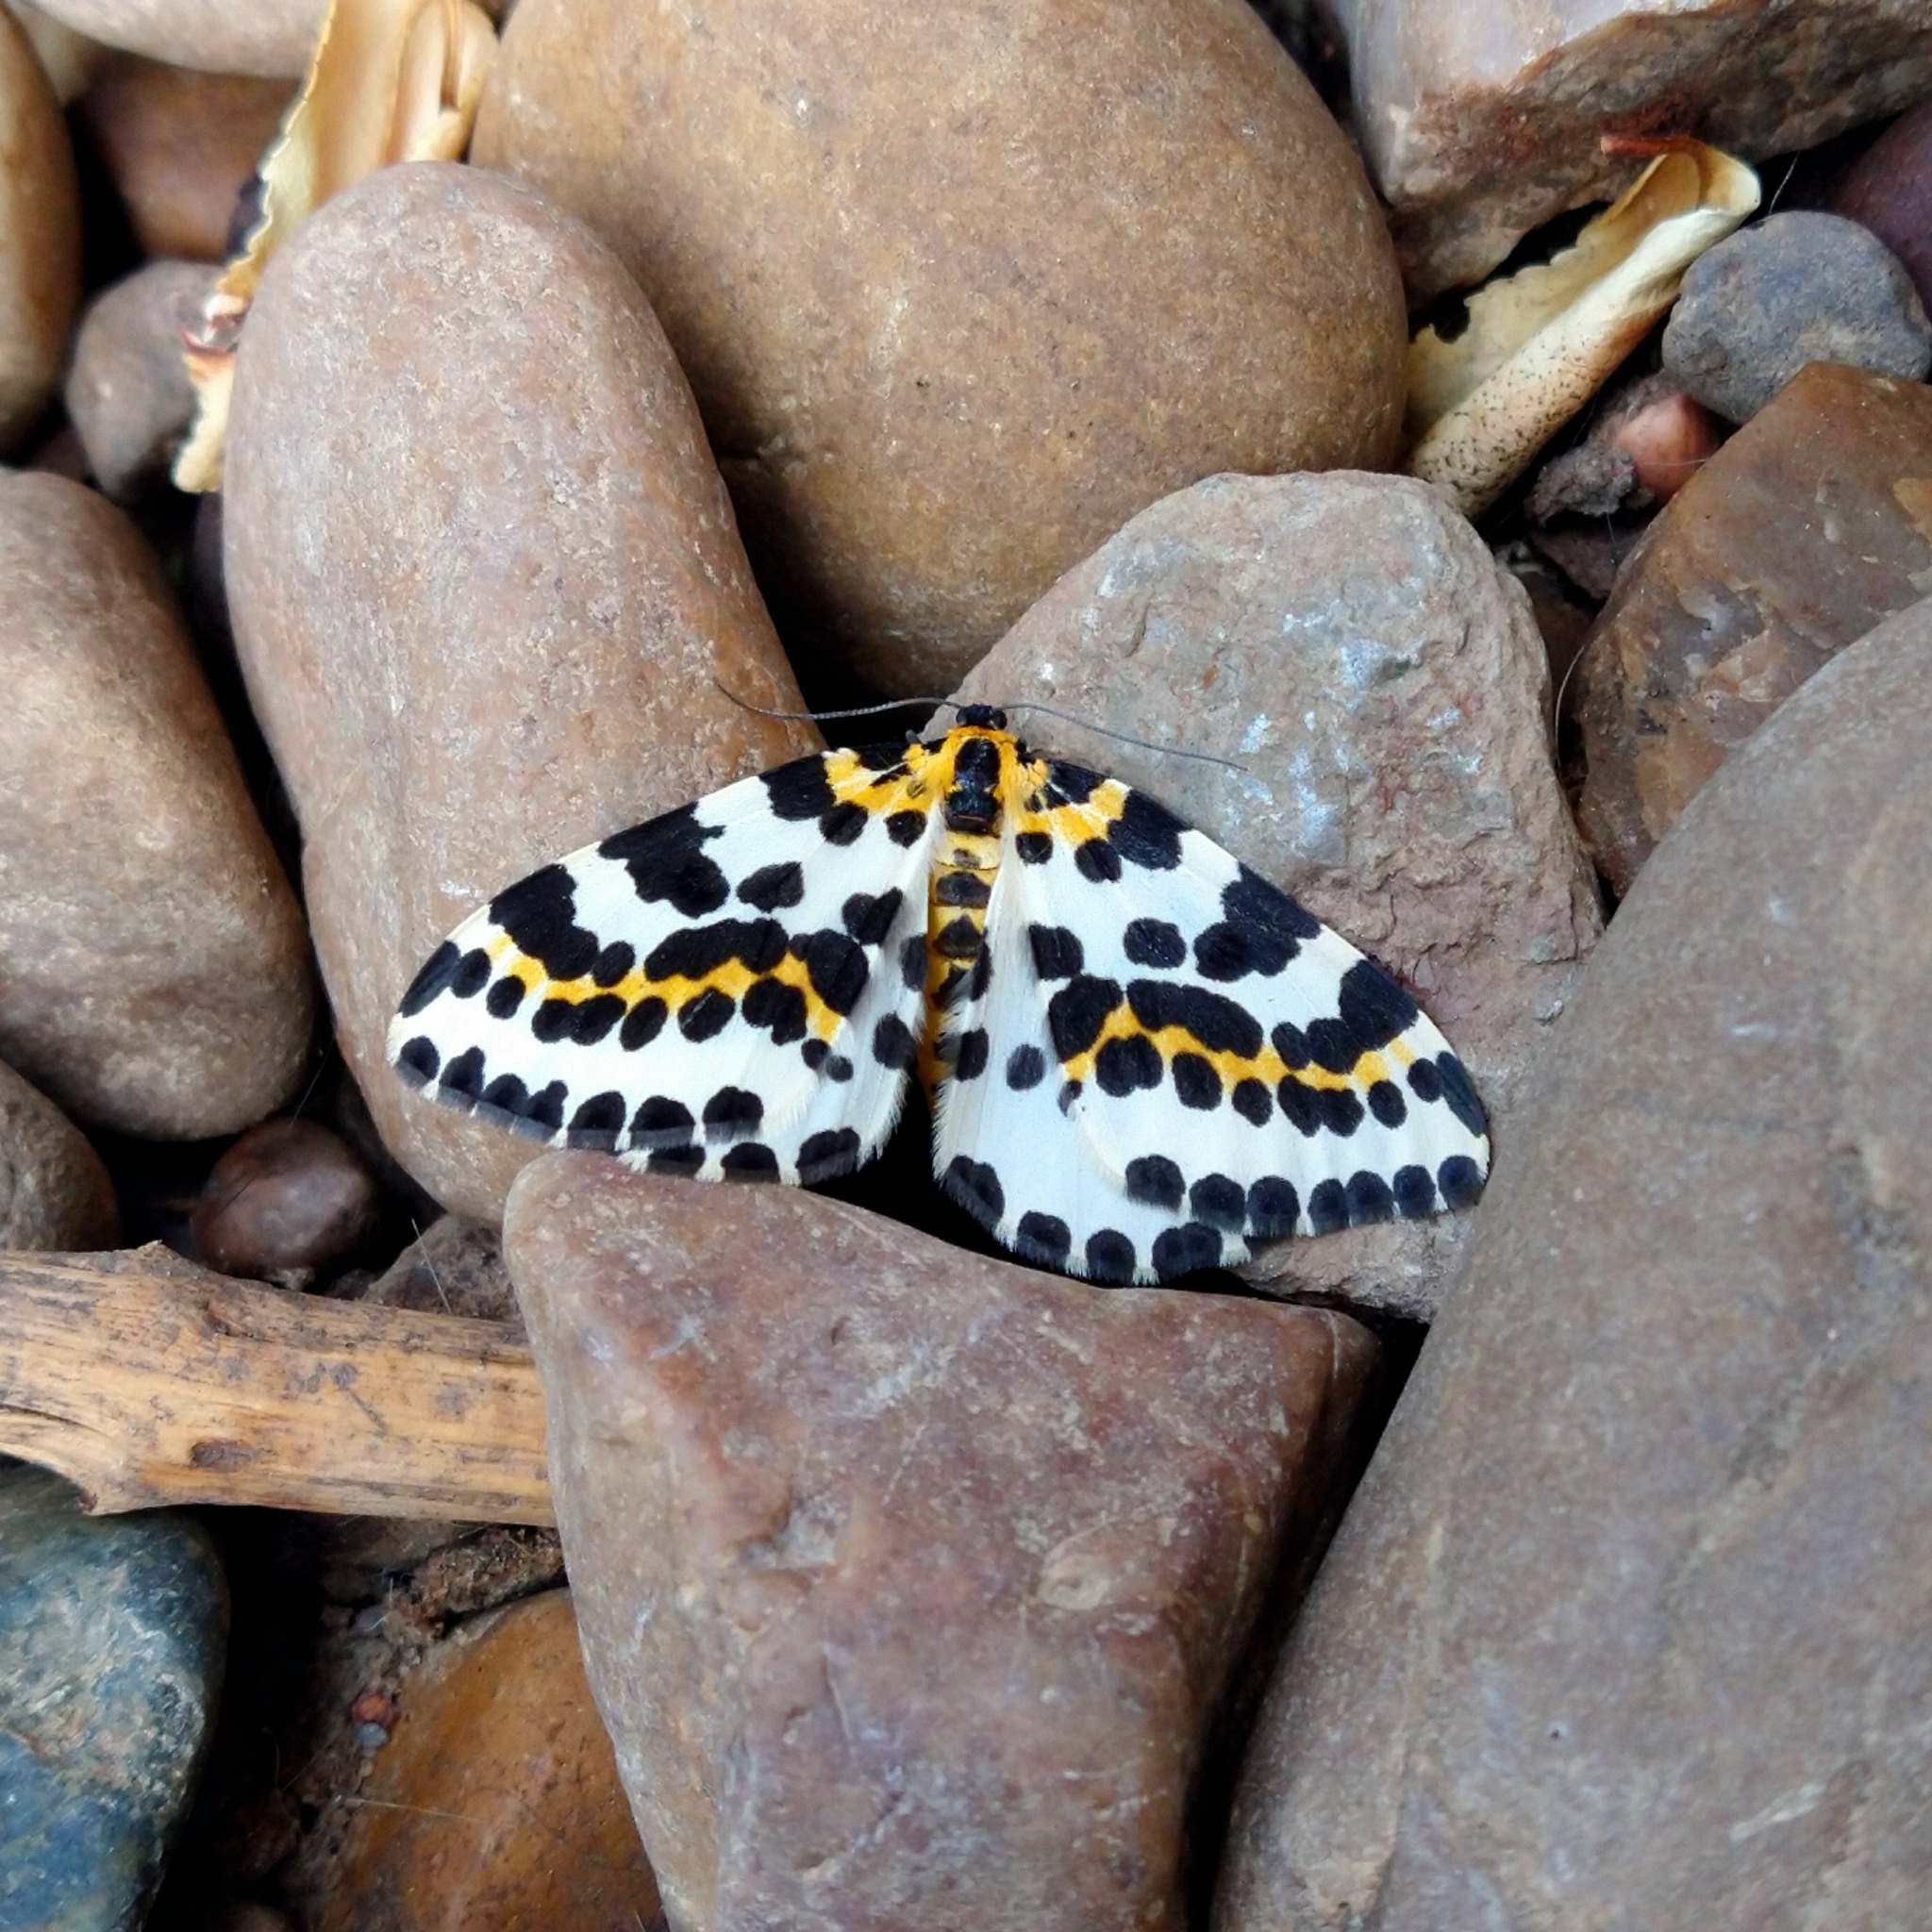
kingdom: Animalia
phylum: Arthropoda
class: Insecta
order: Lepidoptera
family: Geometridae
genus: Abraxas
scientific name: Abraxas grossulariata
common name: Magpie
